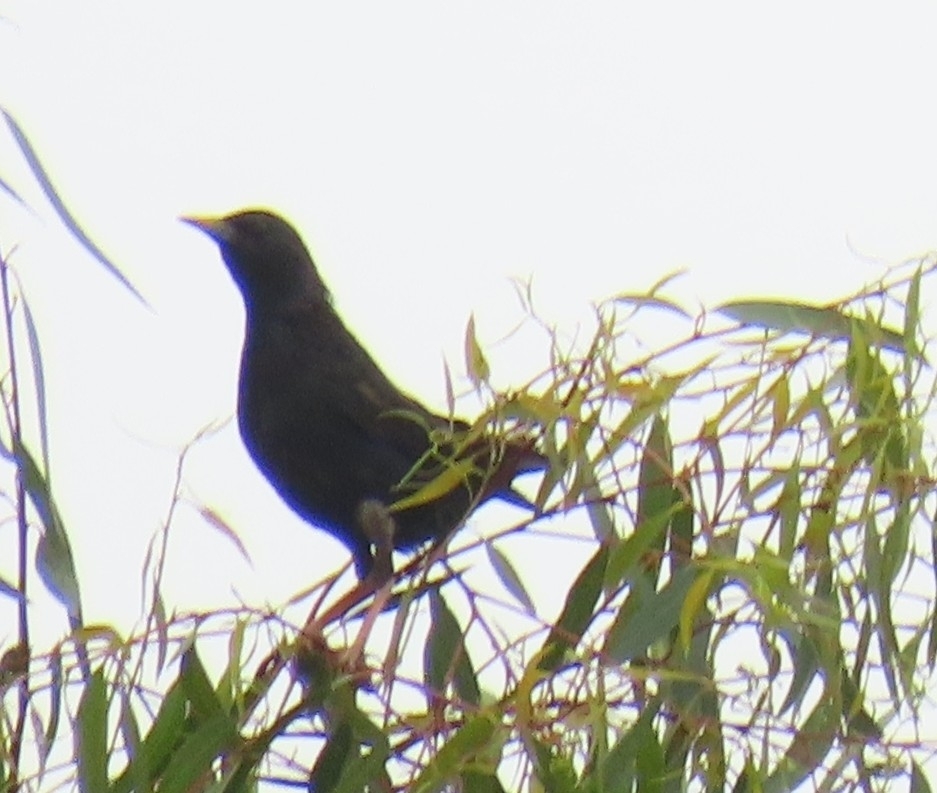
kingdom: Animalia
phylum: Chordata
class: Aves
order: Passeriformes
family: Sturnidae
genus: Sturnus
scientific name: Sturnus vulgaris
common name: Common starling
